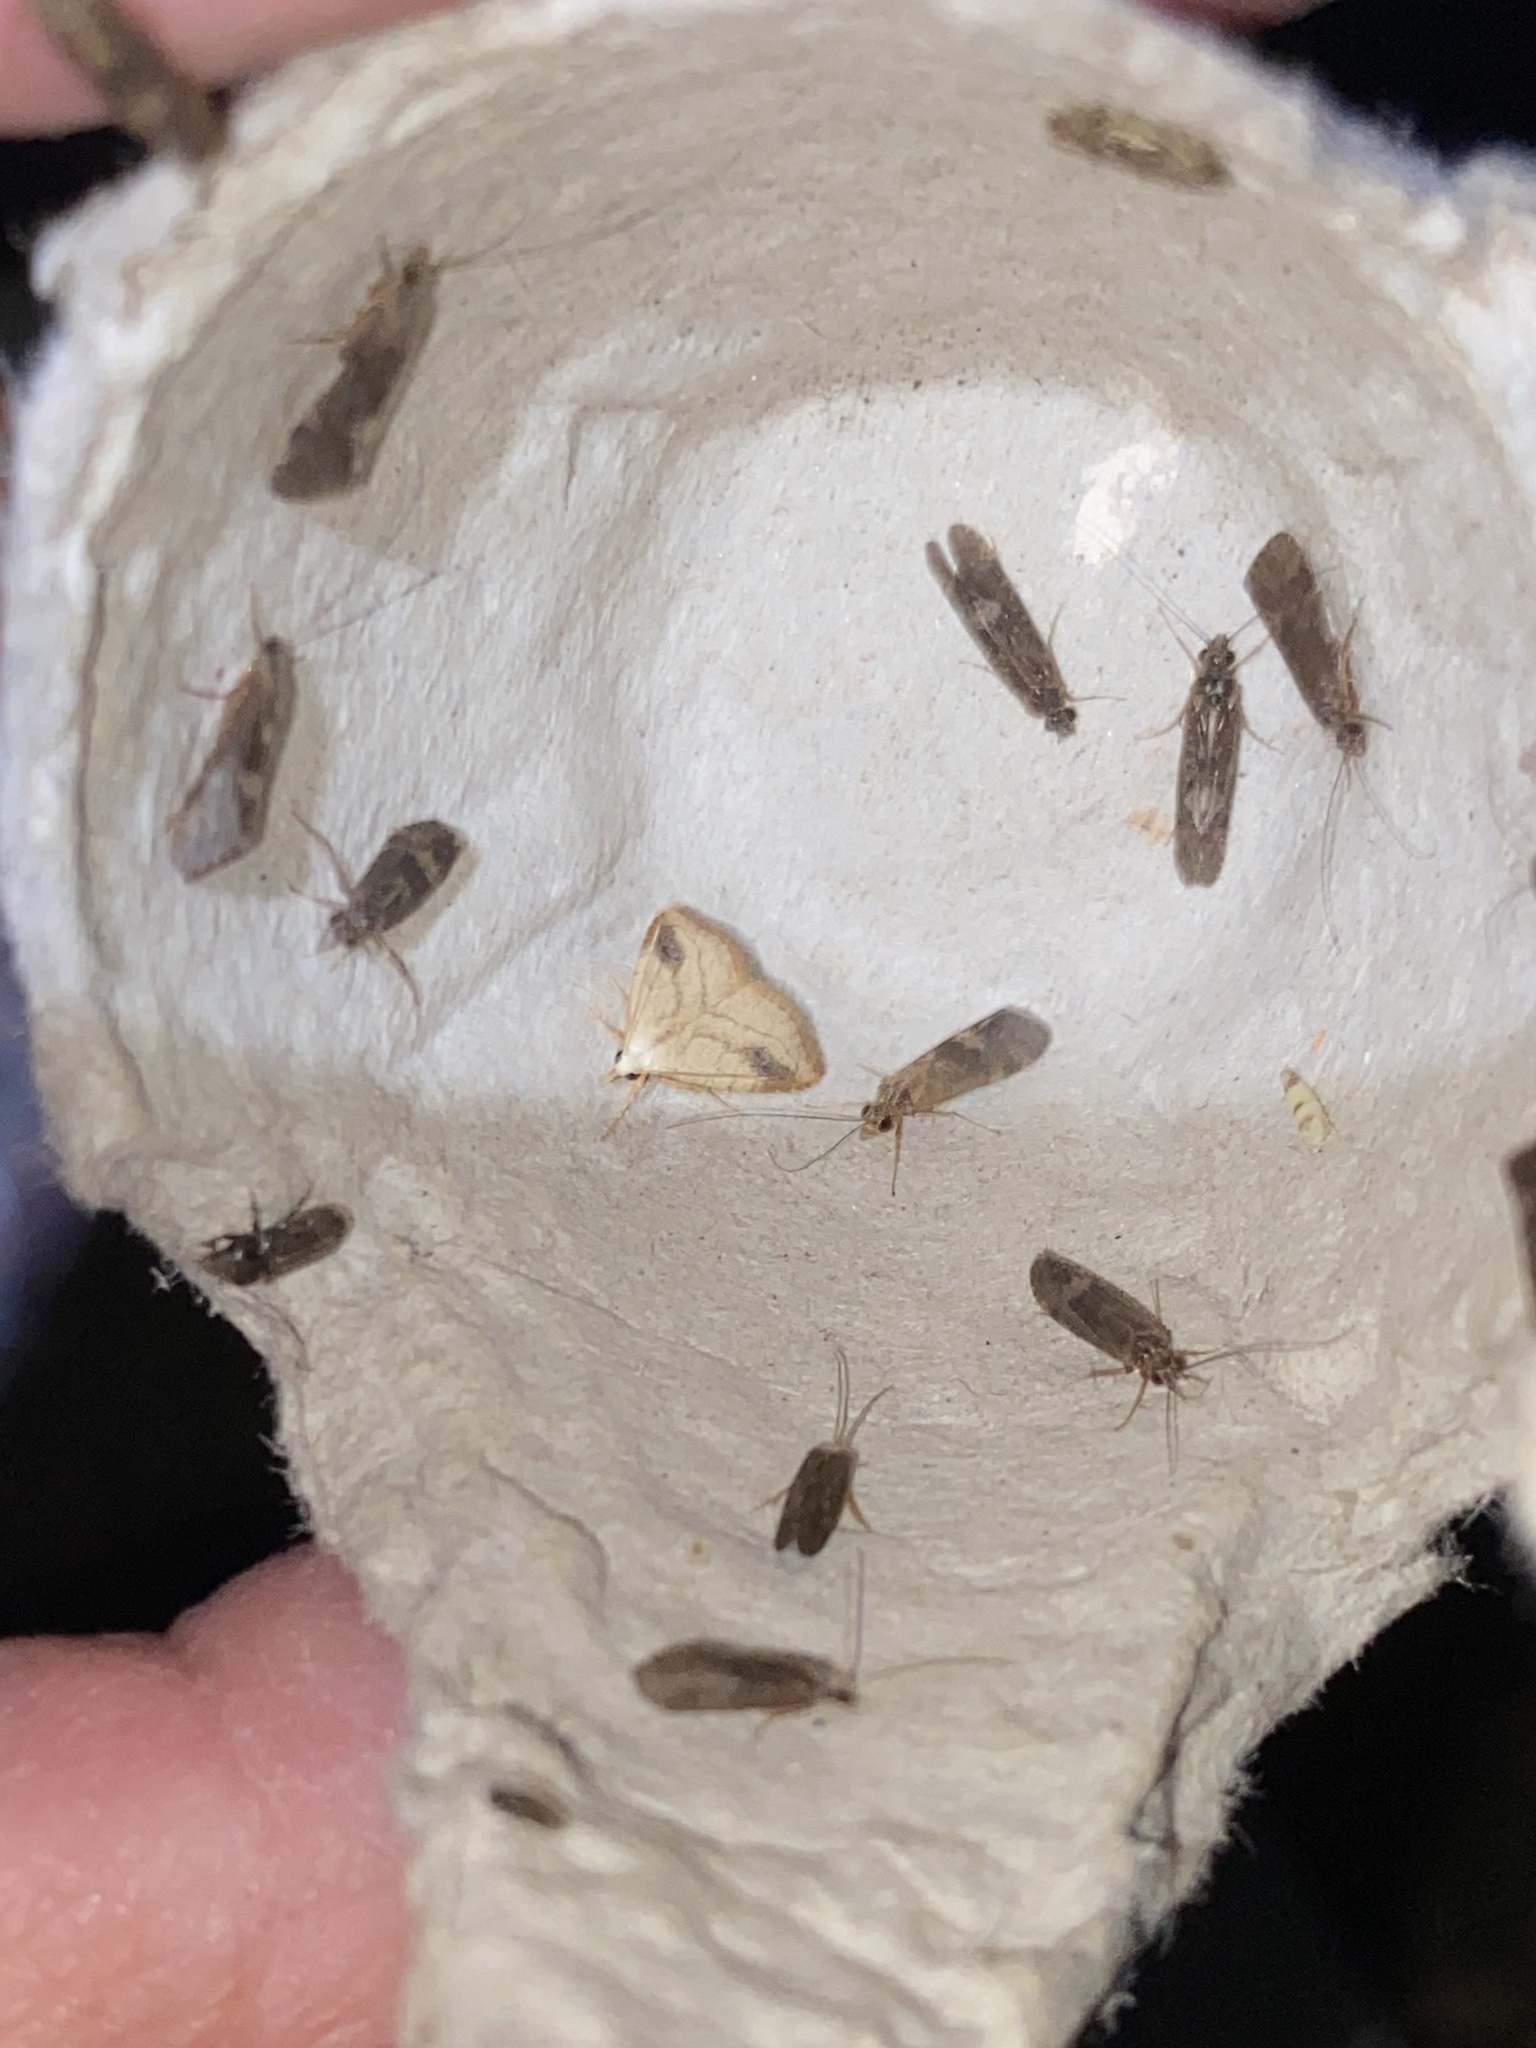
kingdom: Animalia
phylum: Arthropoda
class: Insecta
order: Lepidoptera
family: Erebidae
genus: Rivula
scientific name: Rivula propinqualis
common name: Spotted grass moth
